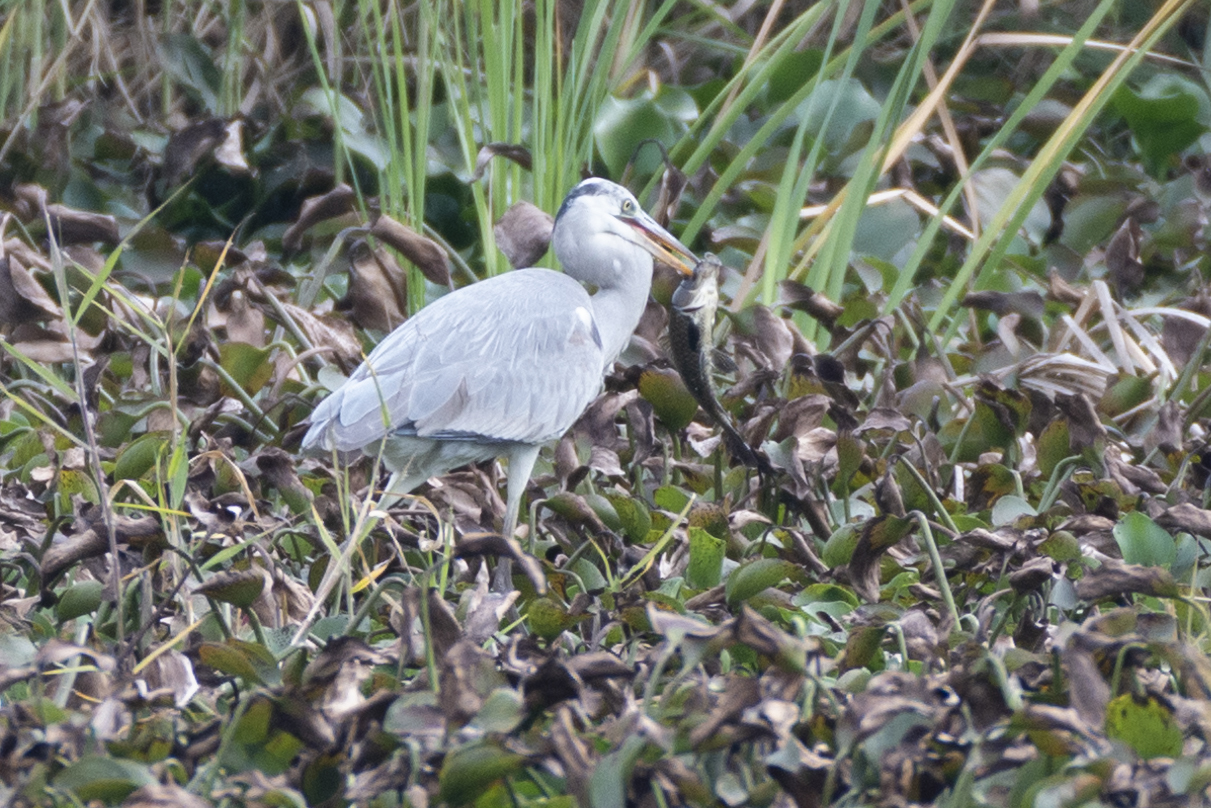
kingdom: Animalia
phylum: Chordata
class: Aves
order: Pelecaniformes
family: Ardeidae
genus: Ardea
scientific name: Ardea cinerea
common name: Grey heron
